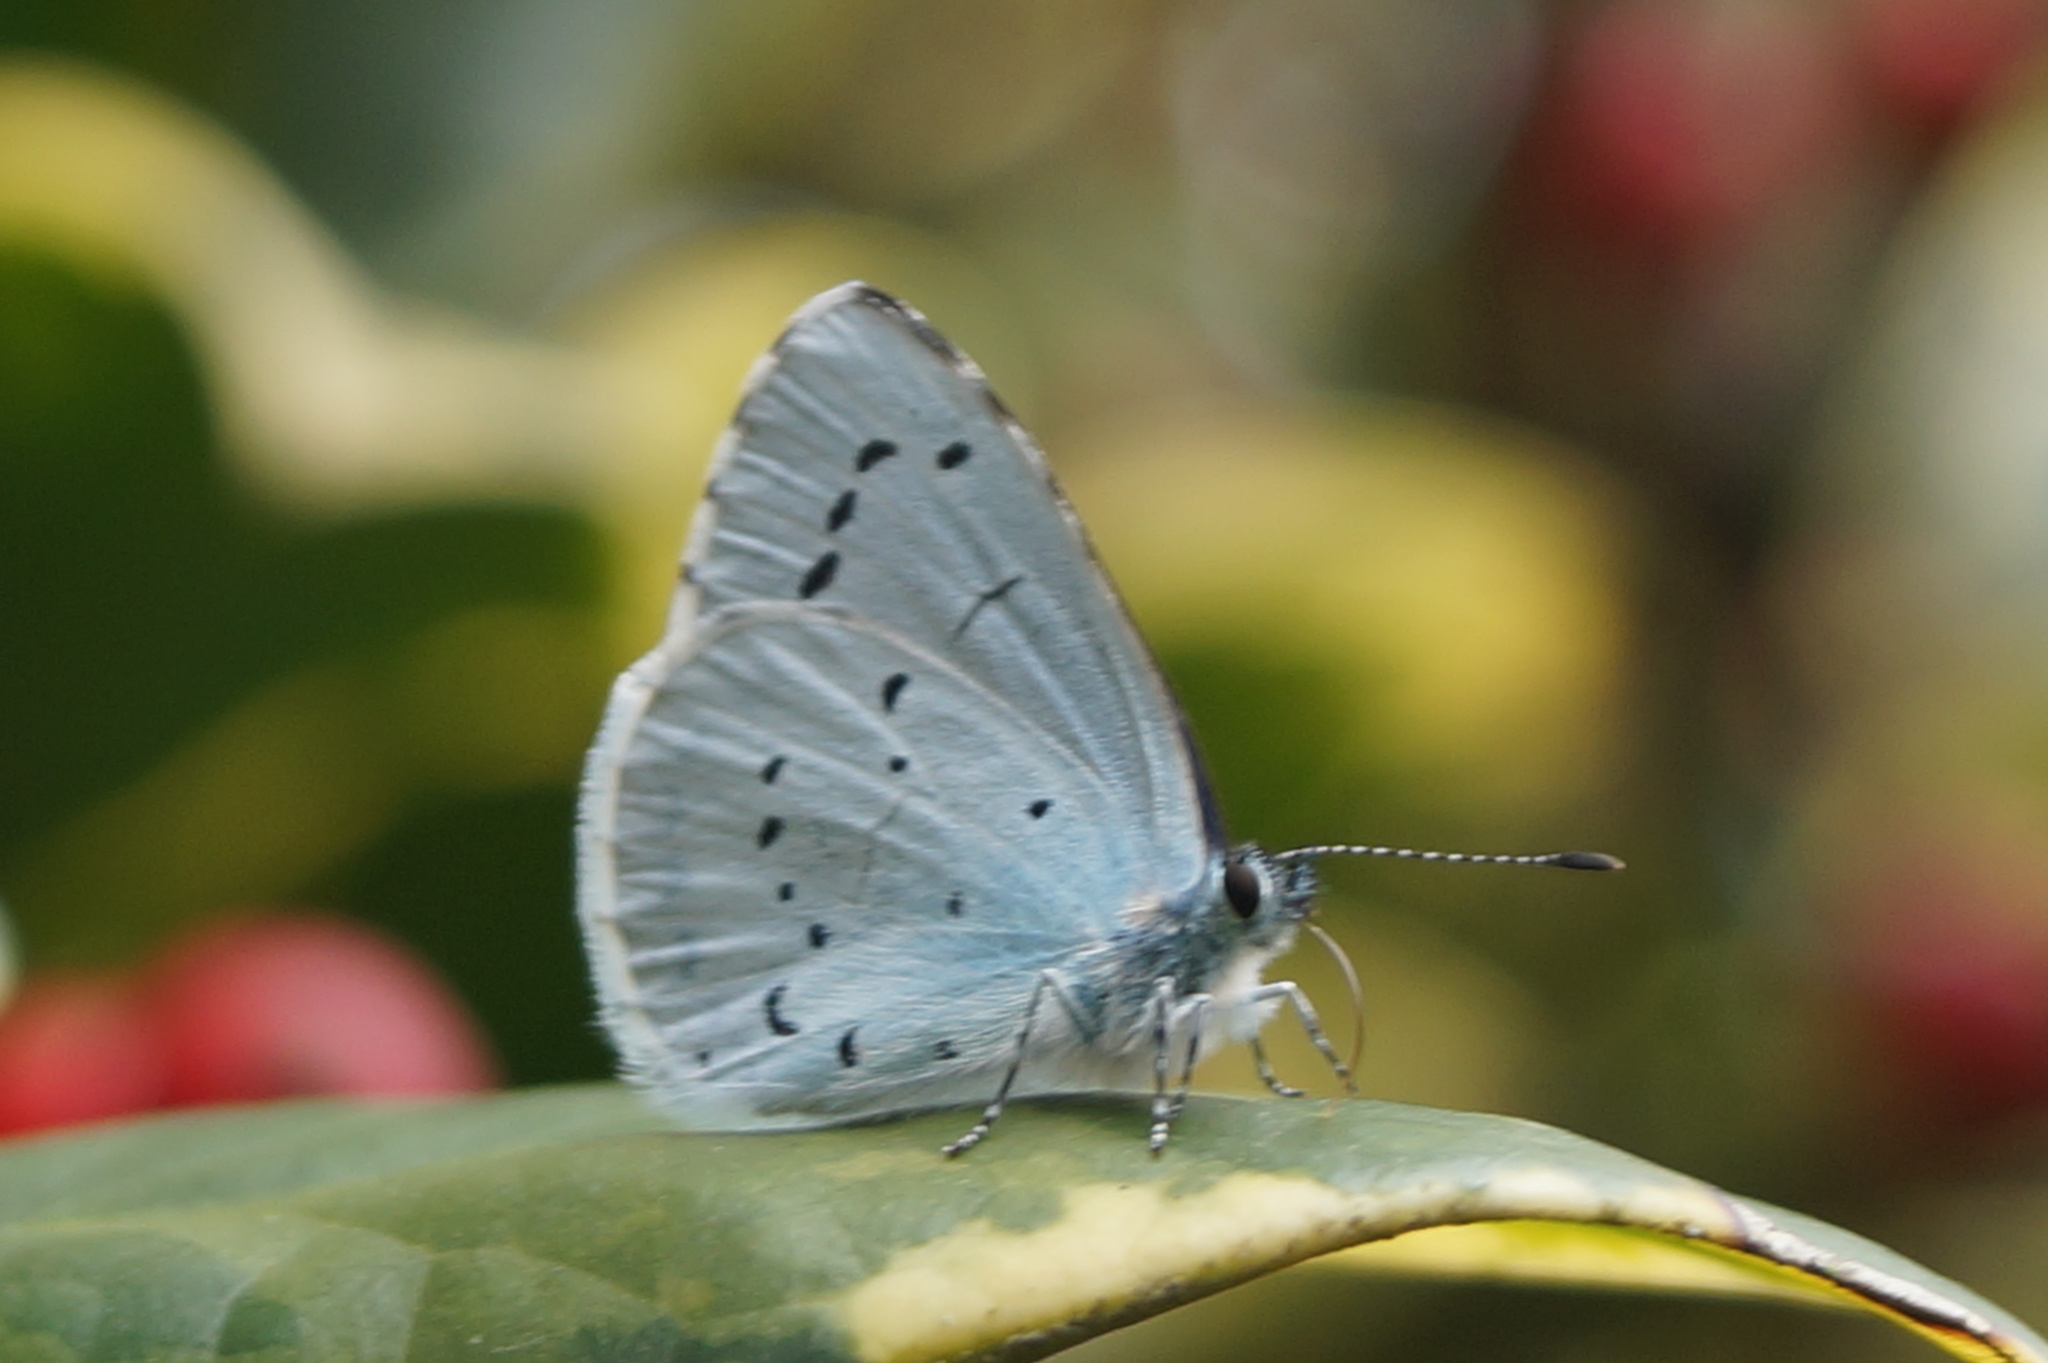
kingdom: Animalia
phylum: Arthropoda
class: Insecta
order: Lepidoptera
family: Lycaenidae
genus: Celastrina
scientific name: Celastrina argiolus
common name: Holly blue
